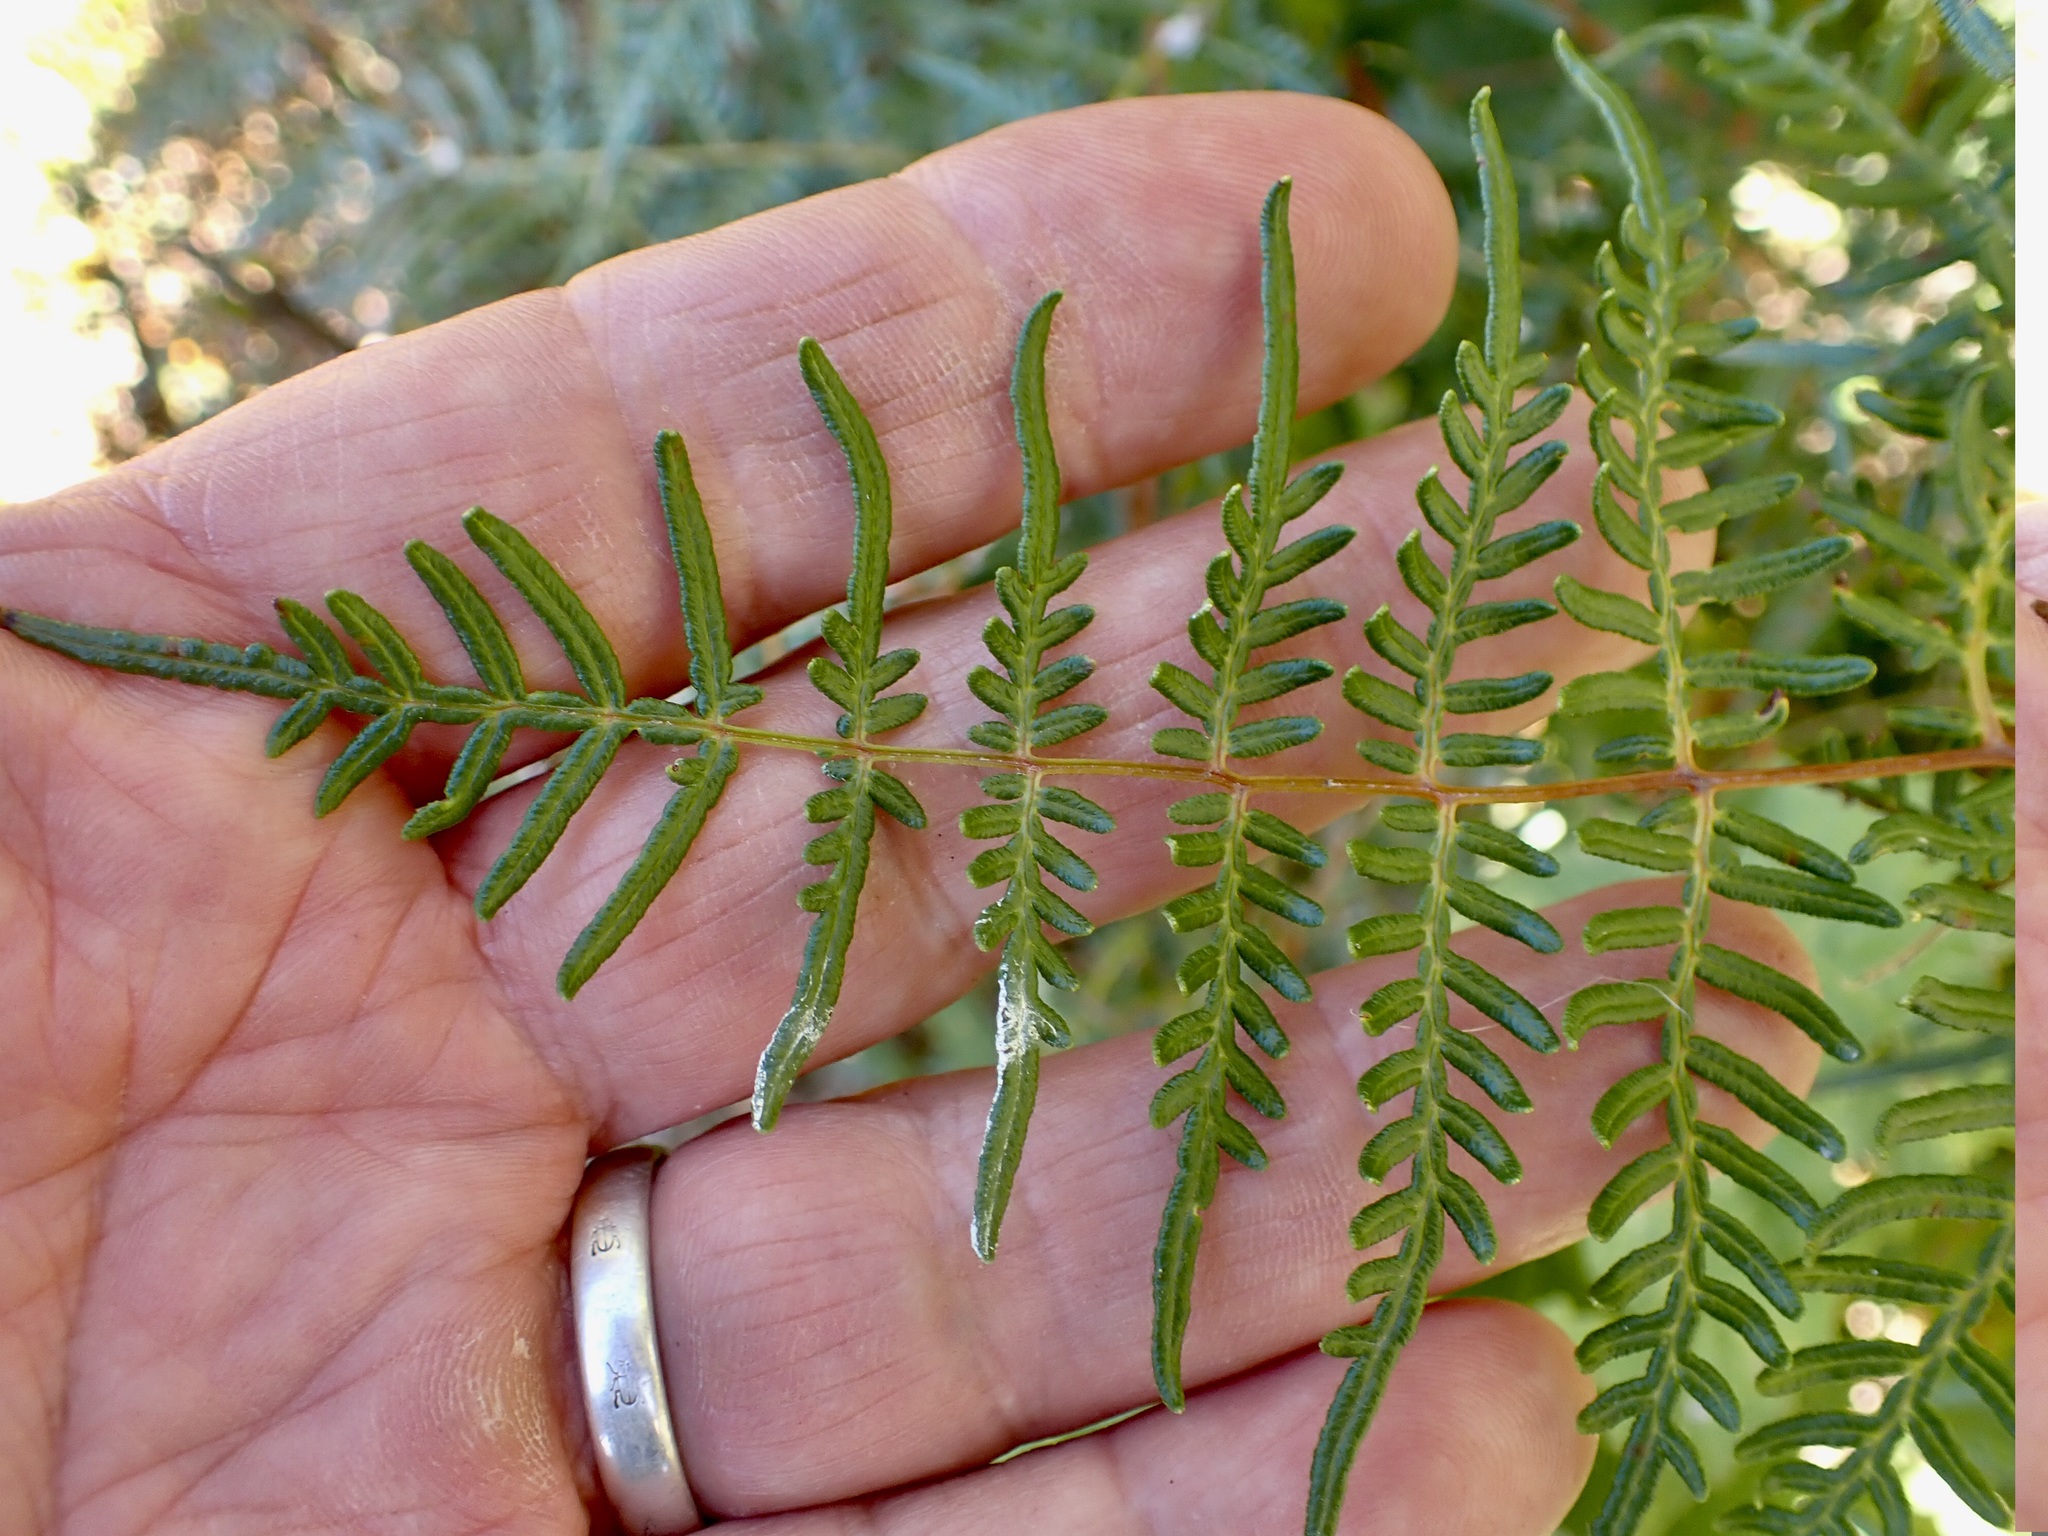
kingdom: Plantae
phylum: Tracheophyta
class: Polypodiopsida
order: Polypodiales
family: Dennstaedtiaceae
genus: Pteridium
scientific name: Pteridium esculentum
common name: Bracken fern
